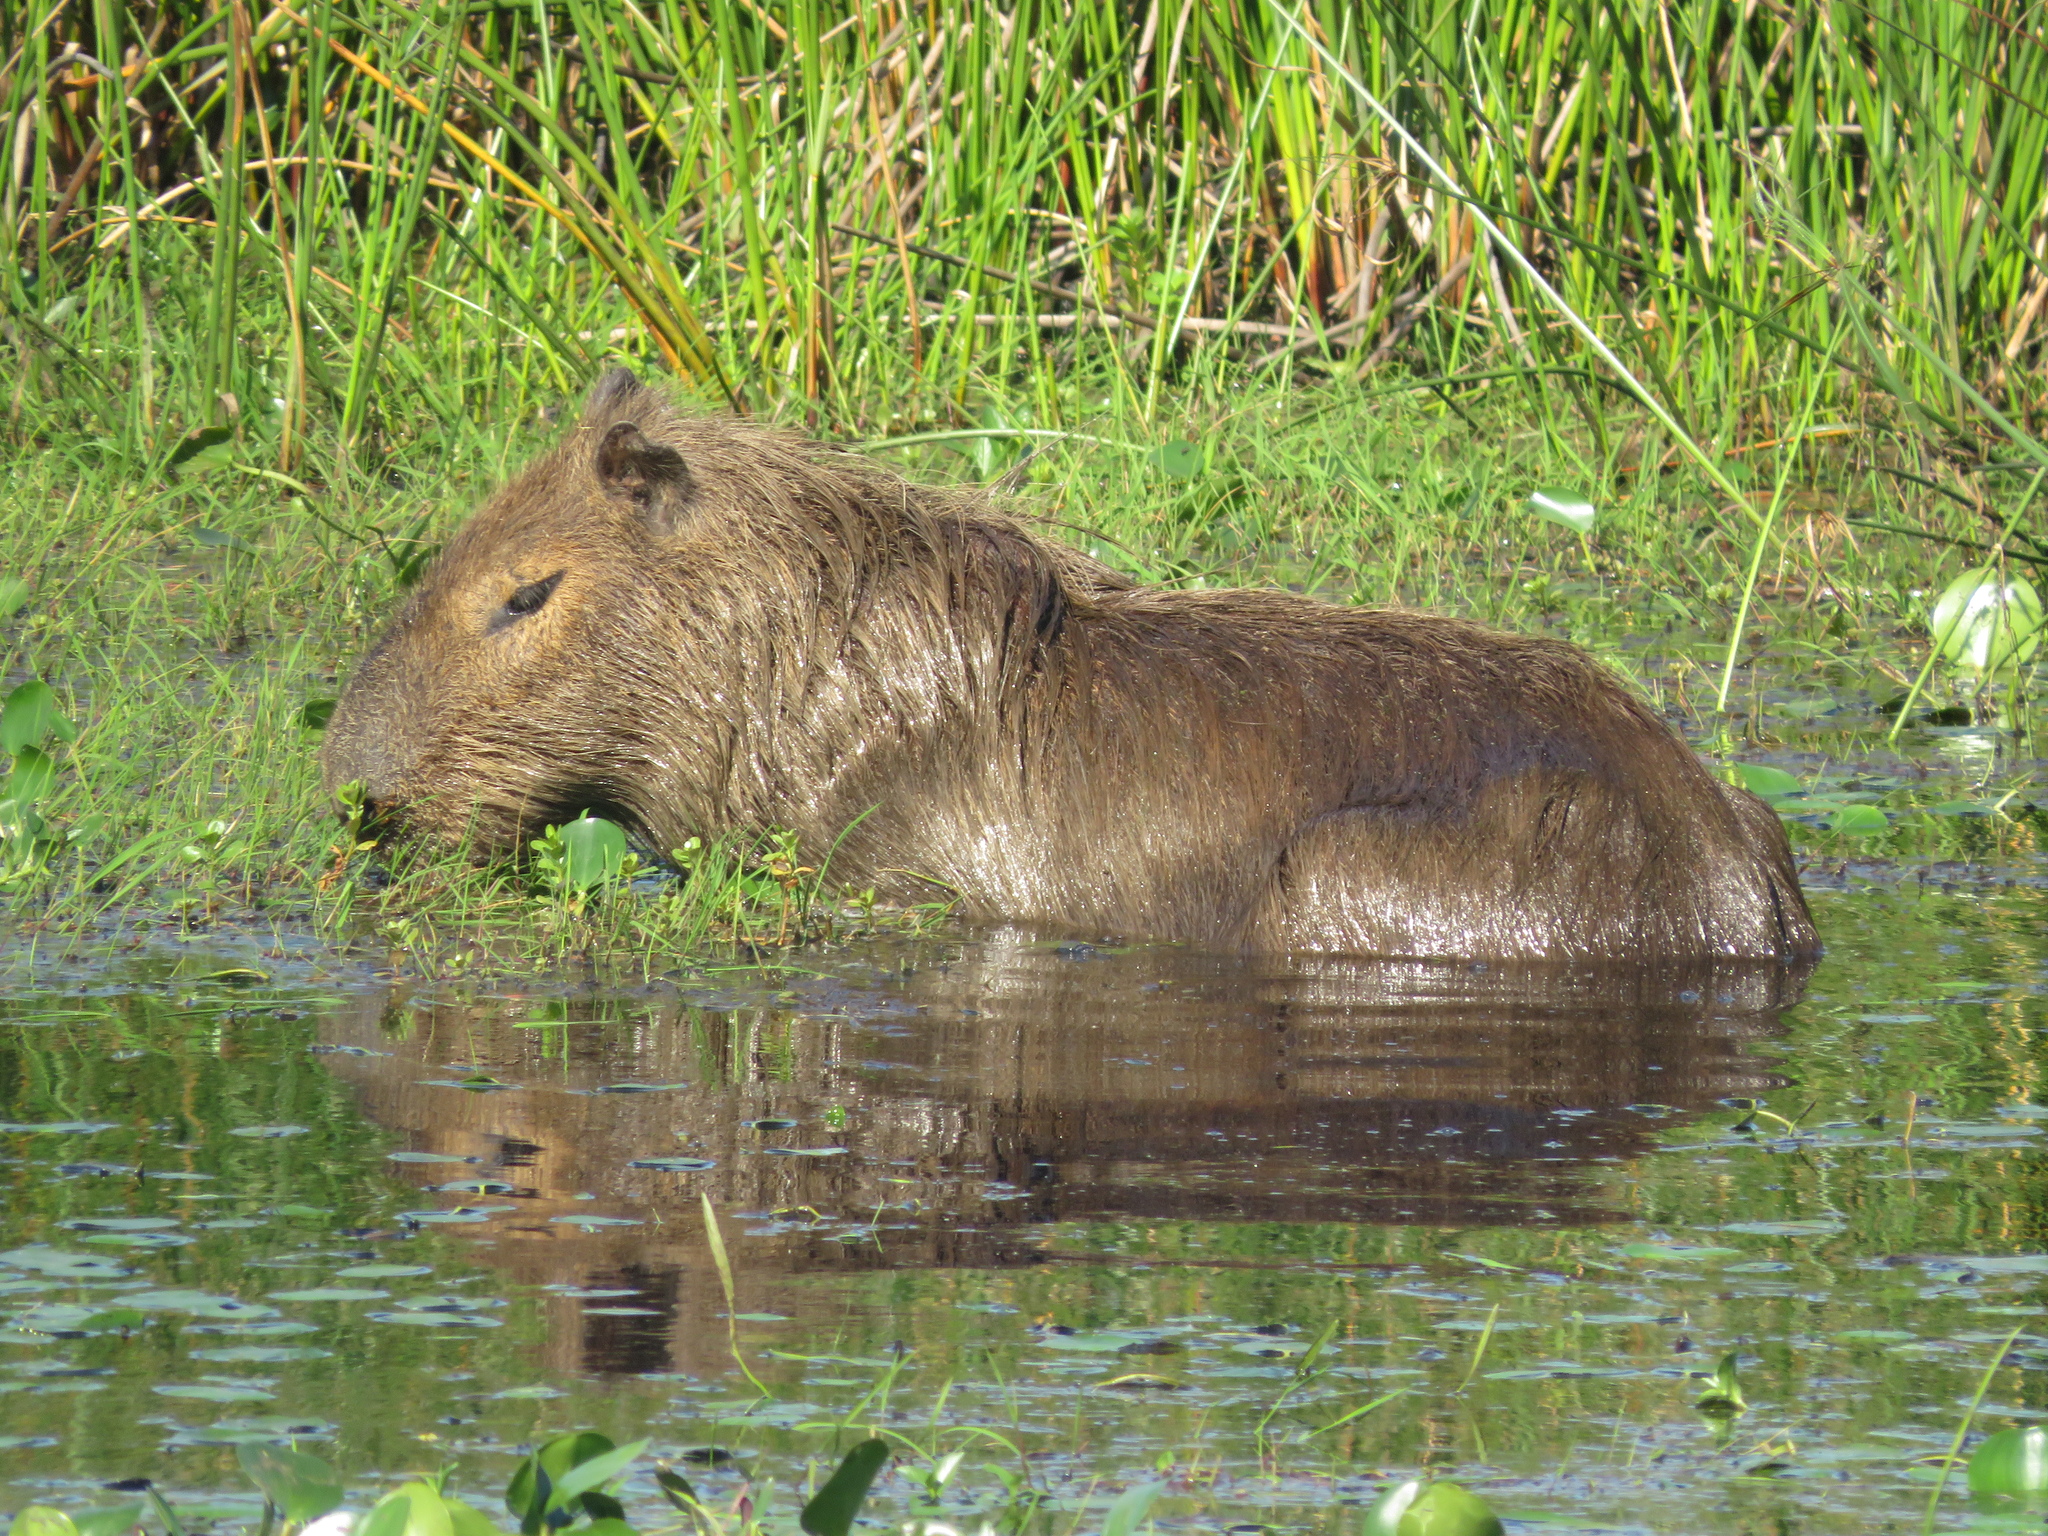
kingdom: Animalia
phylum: Chordata
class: Mammalia
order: Rodentia
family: Caviidae
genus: Hydrochoerus
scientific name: Hydrochoerus hydrochaeris
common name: Capybara
